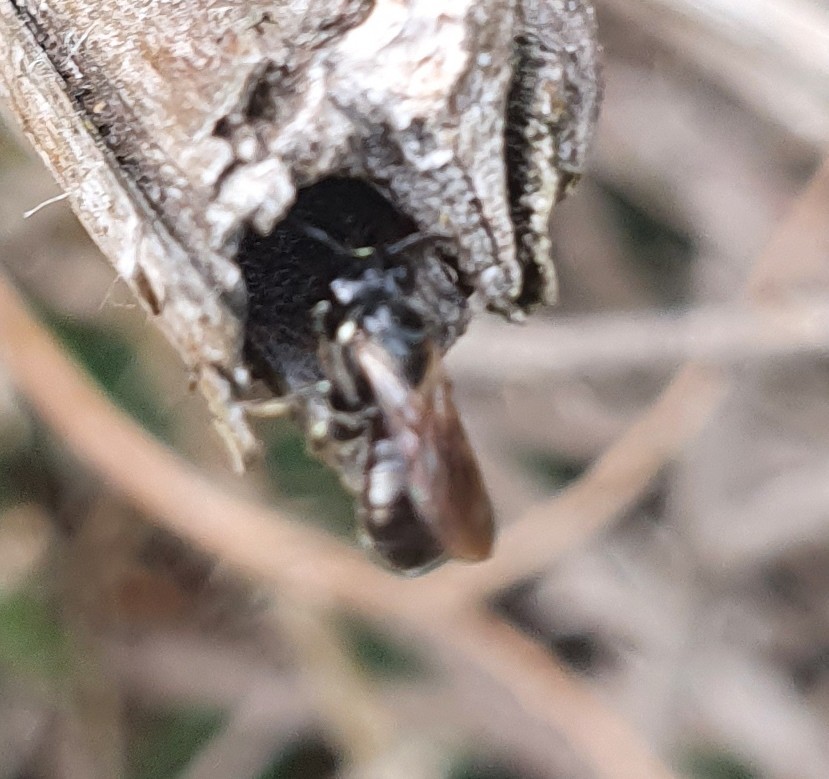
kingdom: Animalia
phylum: Arthropoda
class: Insecta
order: Hymenoptera
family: Apidae
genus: Ceratina
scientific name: Ceratina cucurbitina
